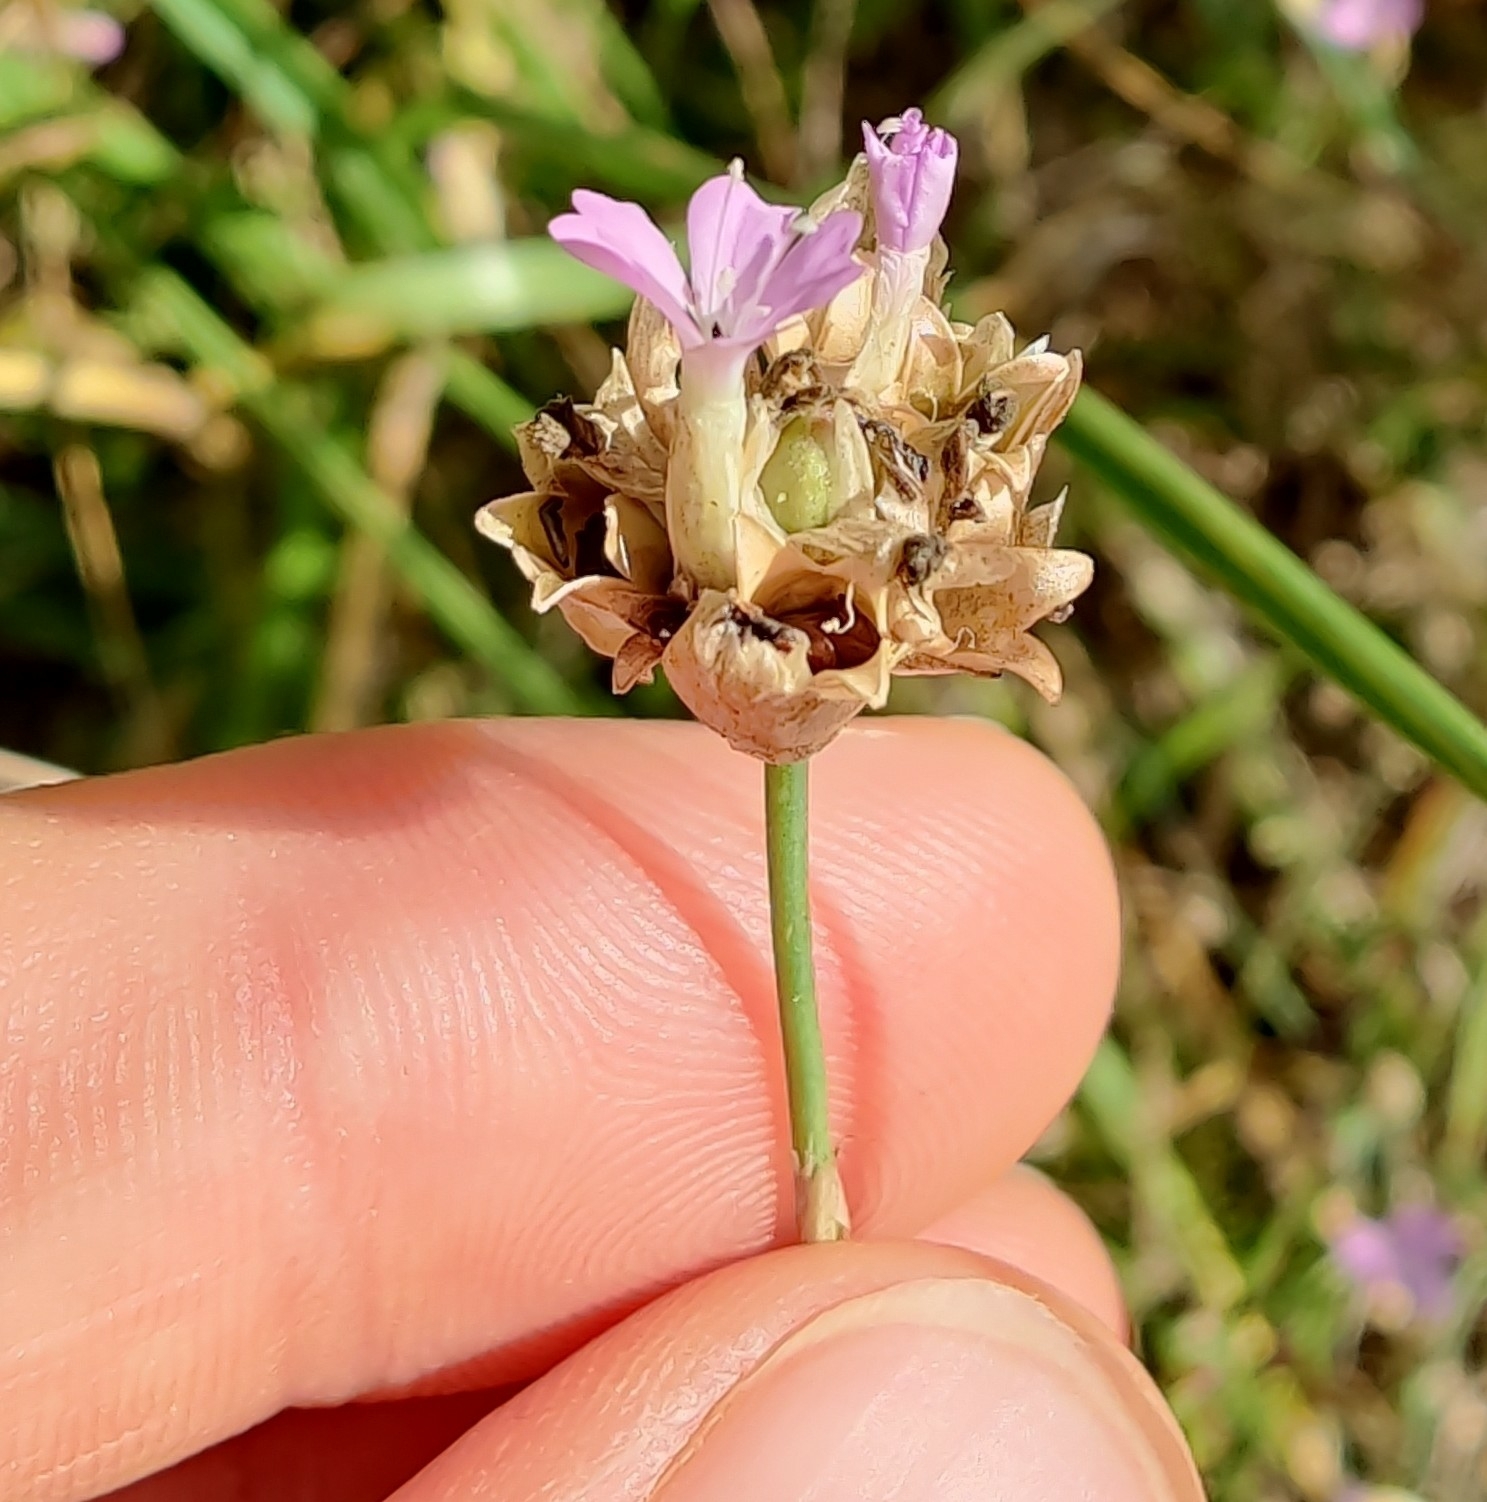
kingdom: Plantae
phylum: Tracheophyta
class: Magnoliopsida
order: Caryophyllales
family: Caryophyllaceae
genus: Petrorhagia
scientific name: Petrorhagia prolifera
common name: Proliferous pink
